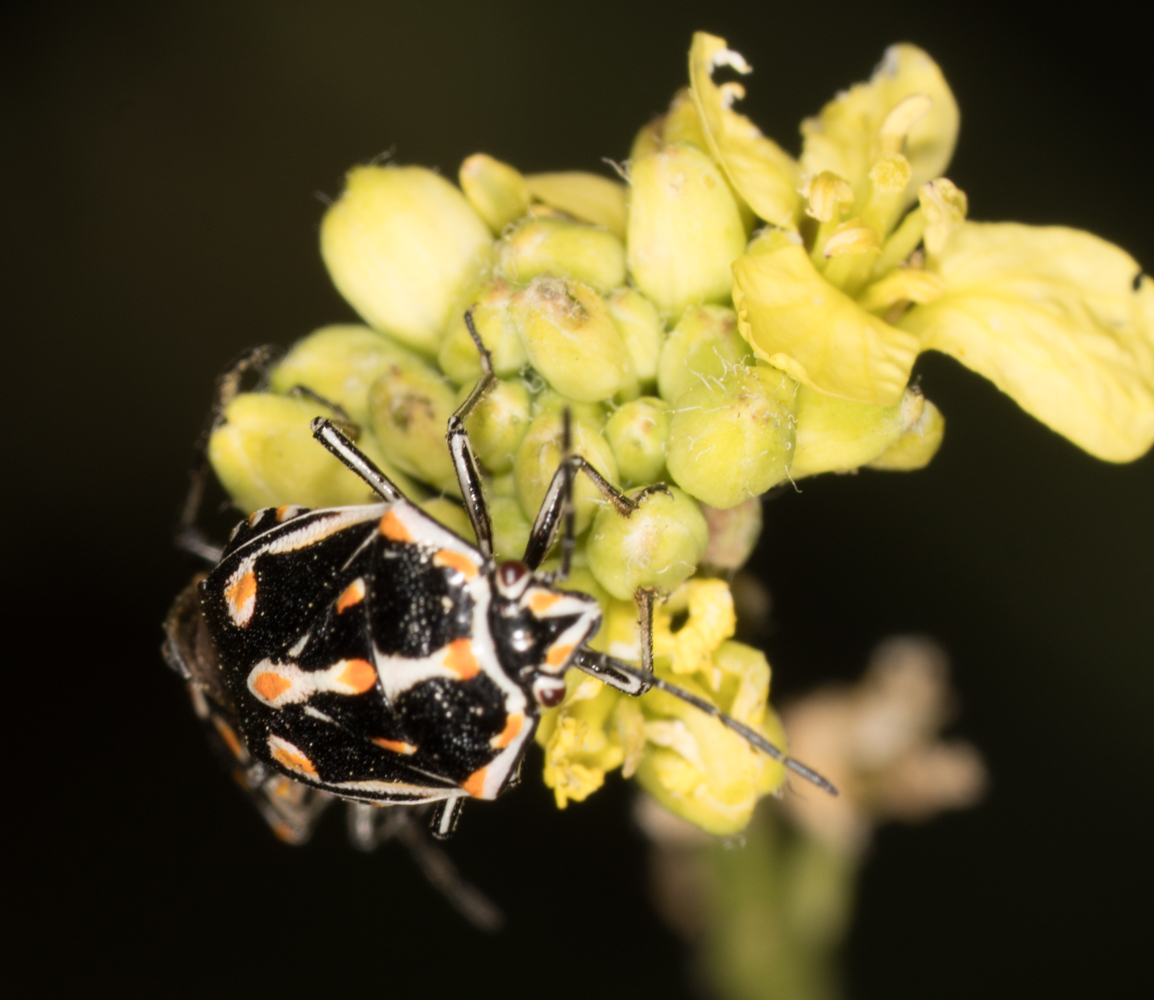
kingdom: Animalia
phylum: Arthropoda
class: Insecta
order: Hemiptera
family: Pentatomidae
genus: Bagrada
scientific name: Bagrada hilaris
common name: Bagrada bug
